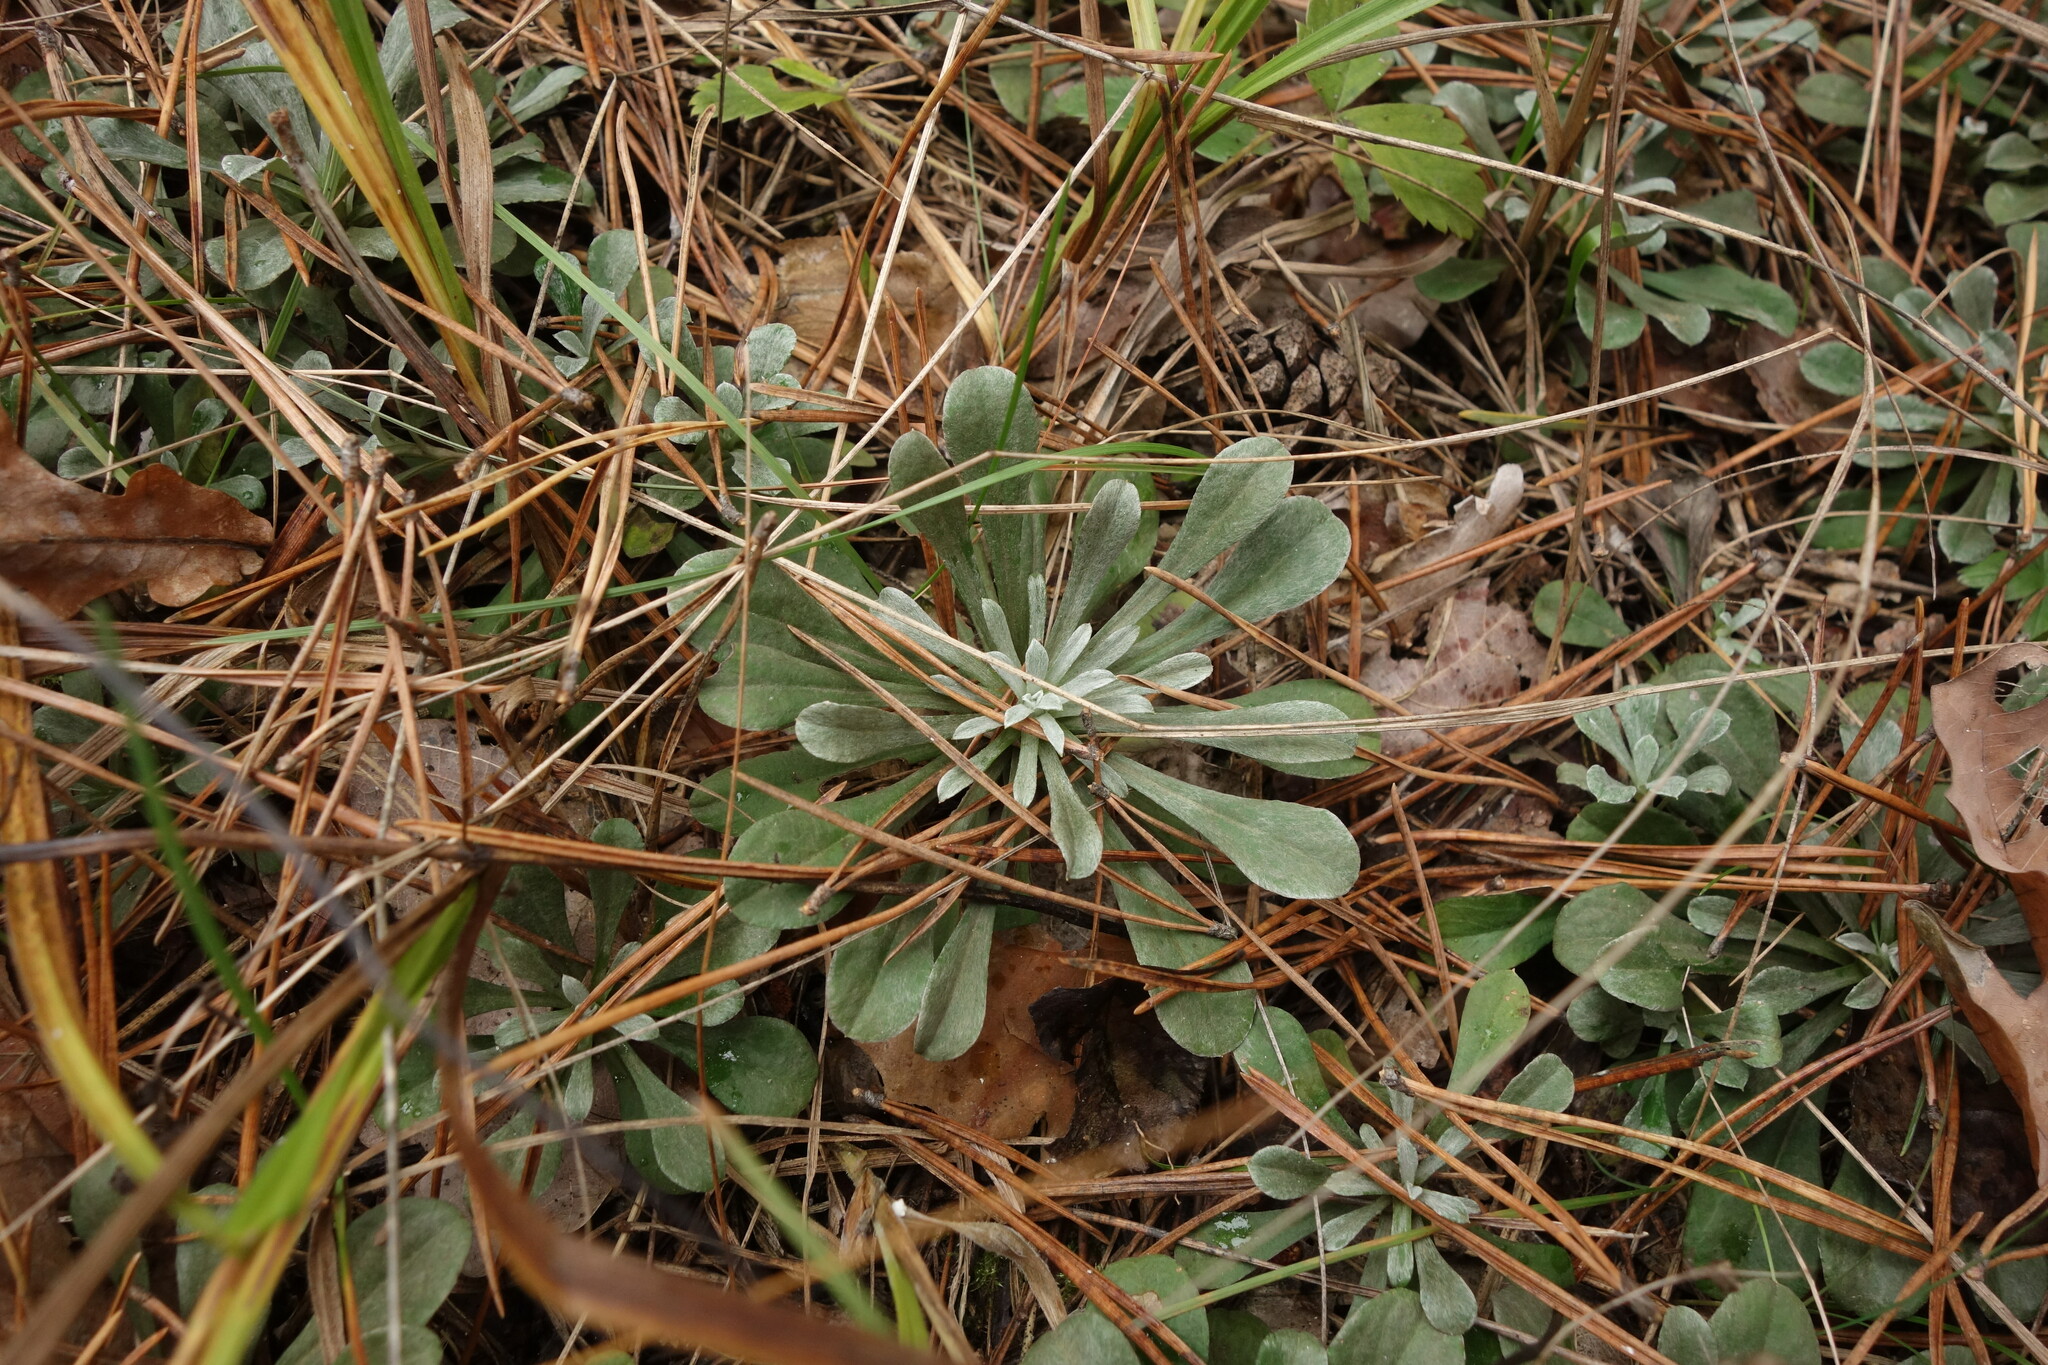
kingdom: Plantae
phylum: Tracheophyta
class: Magnoliopsida
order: Asterales
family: Asteraceae
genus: Antennaria
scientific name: Antennaria dioica
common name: Mountain everlasting
